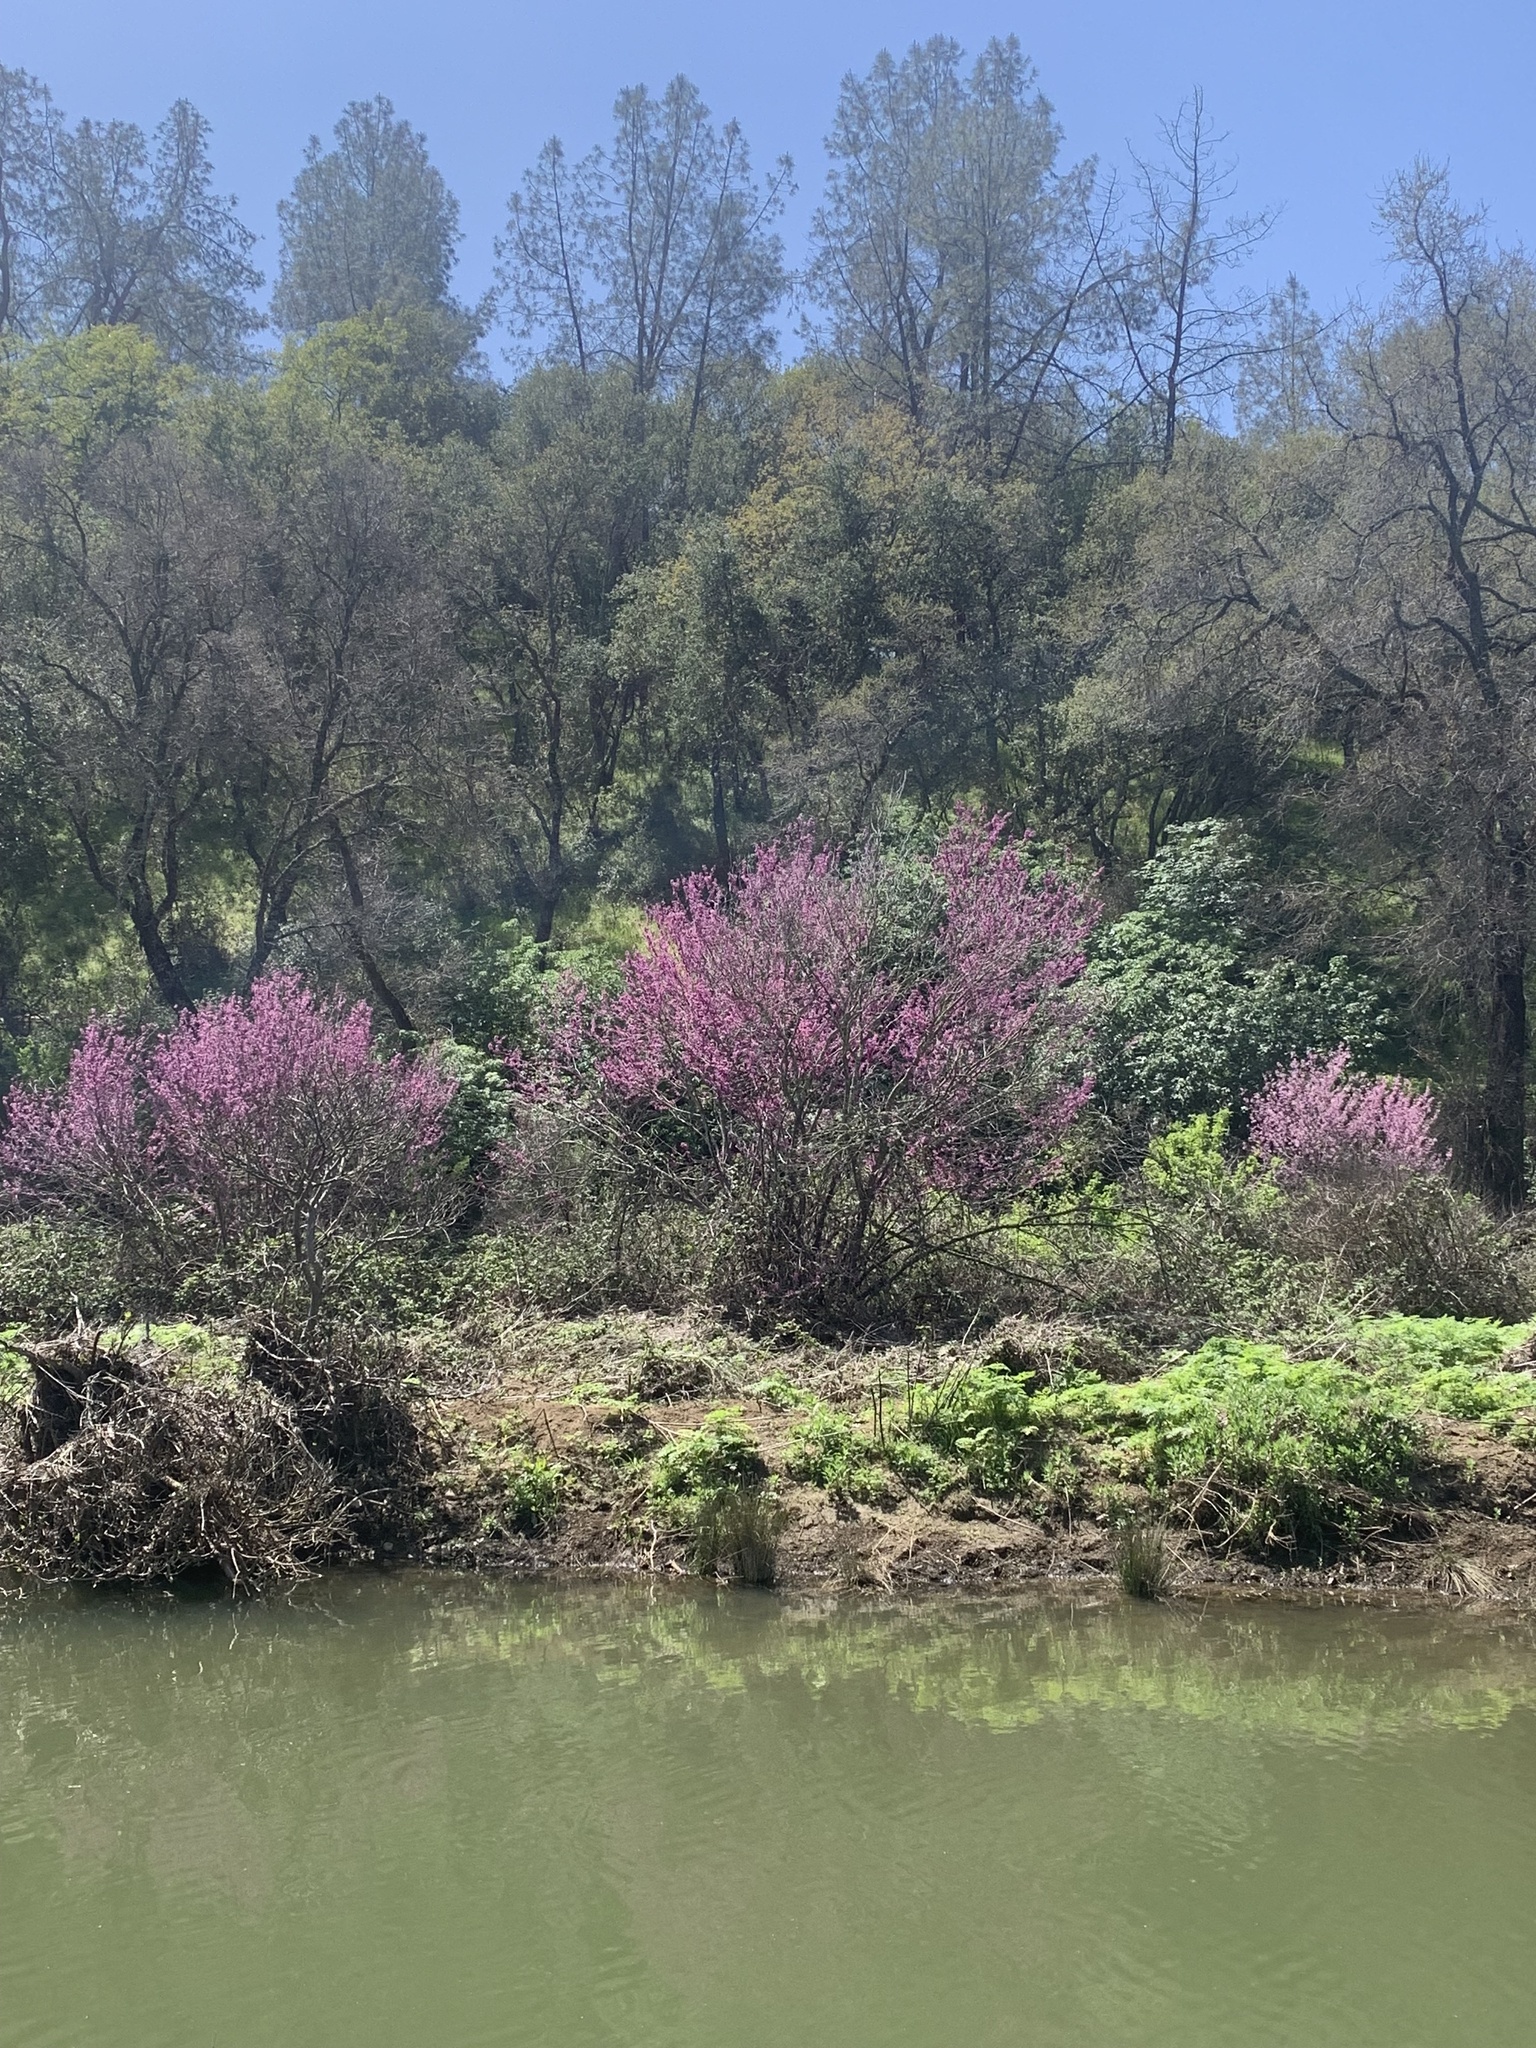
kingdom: Plantae
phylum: Tracheophyta
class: Magnoliopsida
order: Fabales
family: Fabaceae
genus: Cercis
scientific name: Cercis occidentalis
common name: California redbud
